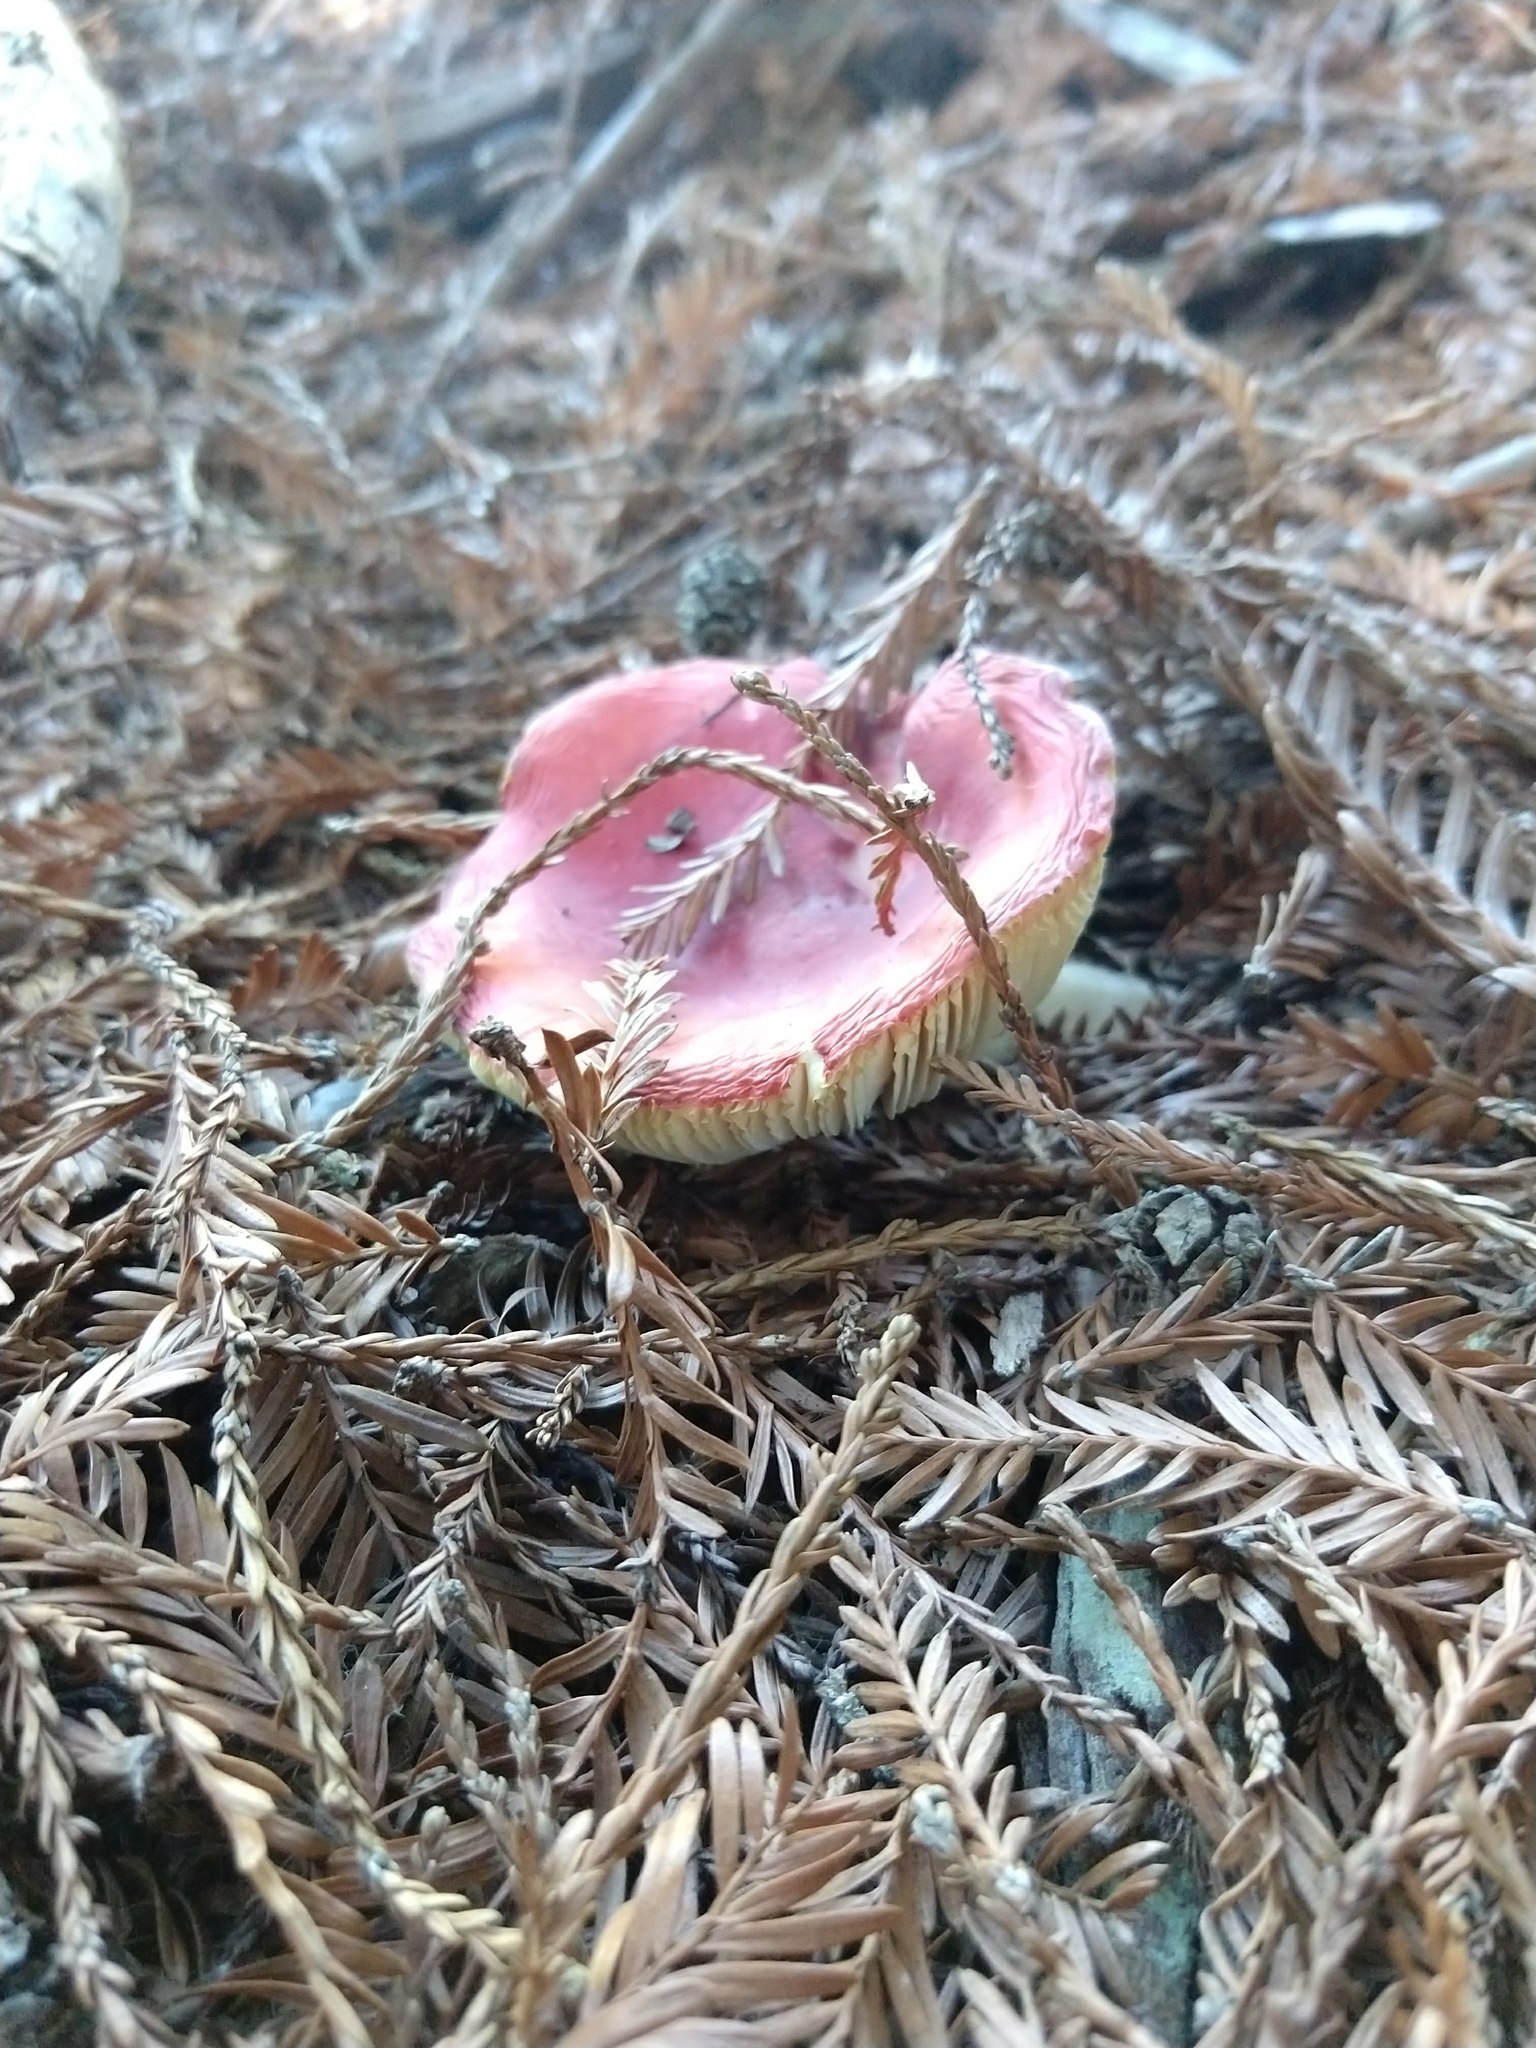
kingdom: Fungi
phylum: Basidiomycota
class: Agaricomycetes
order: Russulales
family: Russulaceae
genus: Russula
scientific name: Russula californiensis
